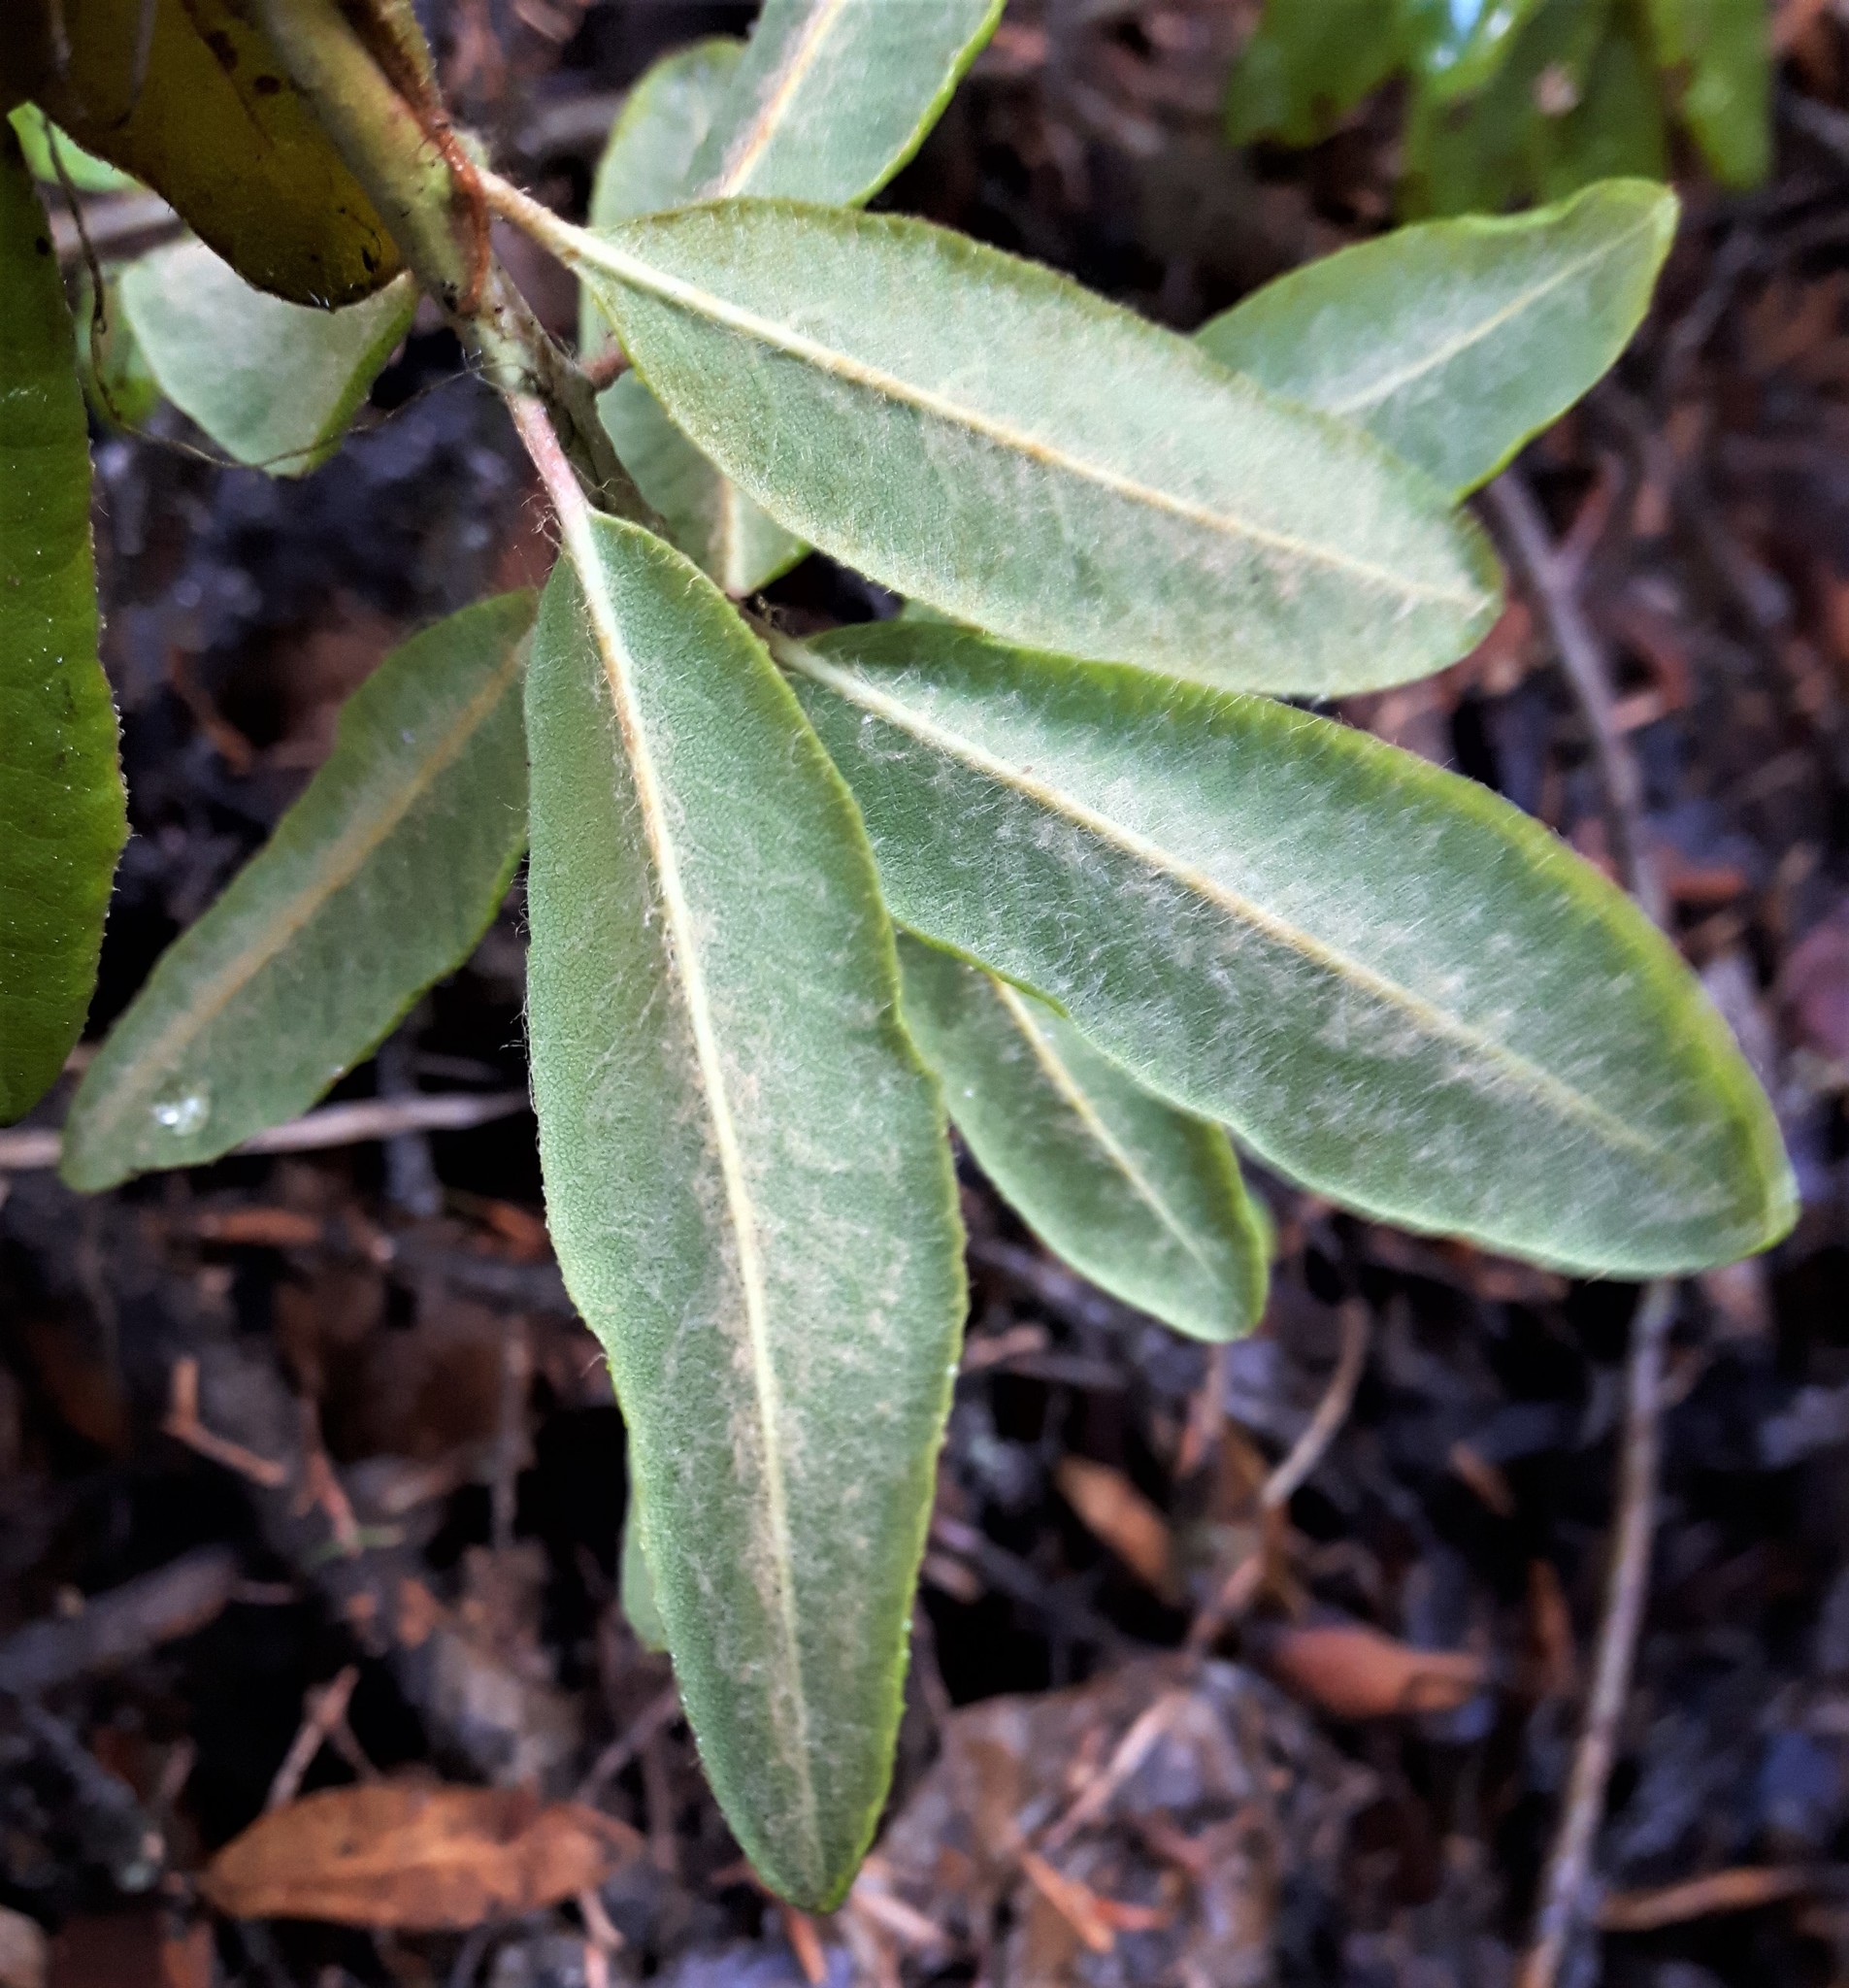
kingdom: Plantae
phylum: Tracheophyta
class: Magnoliopsida
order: Ericales
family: Ericaceae
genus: Rhododendron
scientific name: Rhododendron columbianum
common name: Western labrador tea
